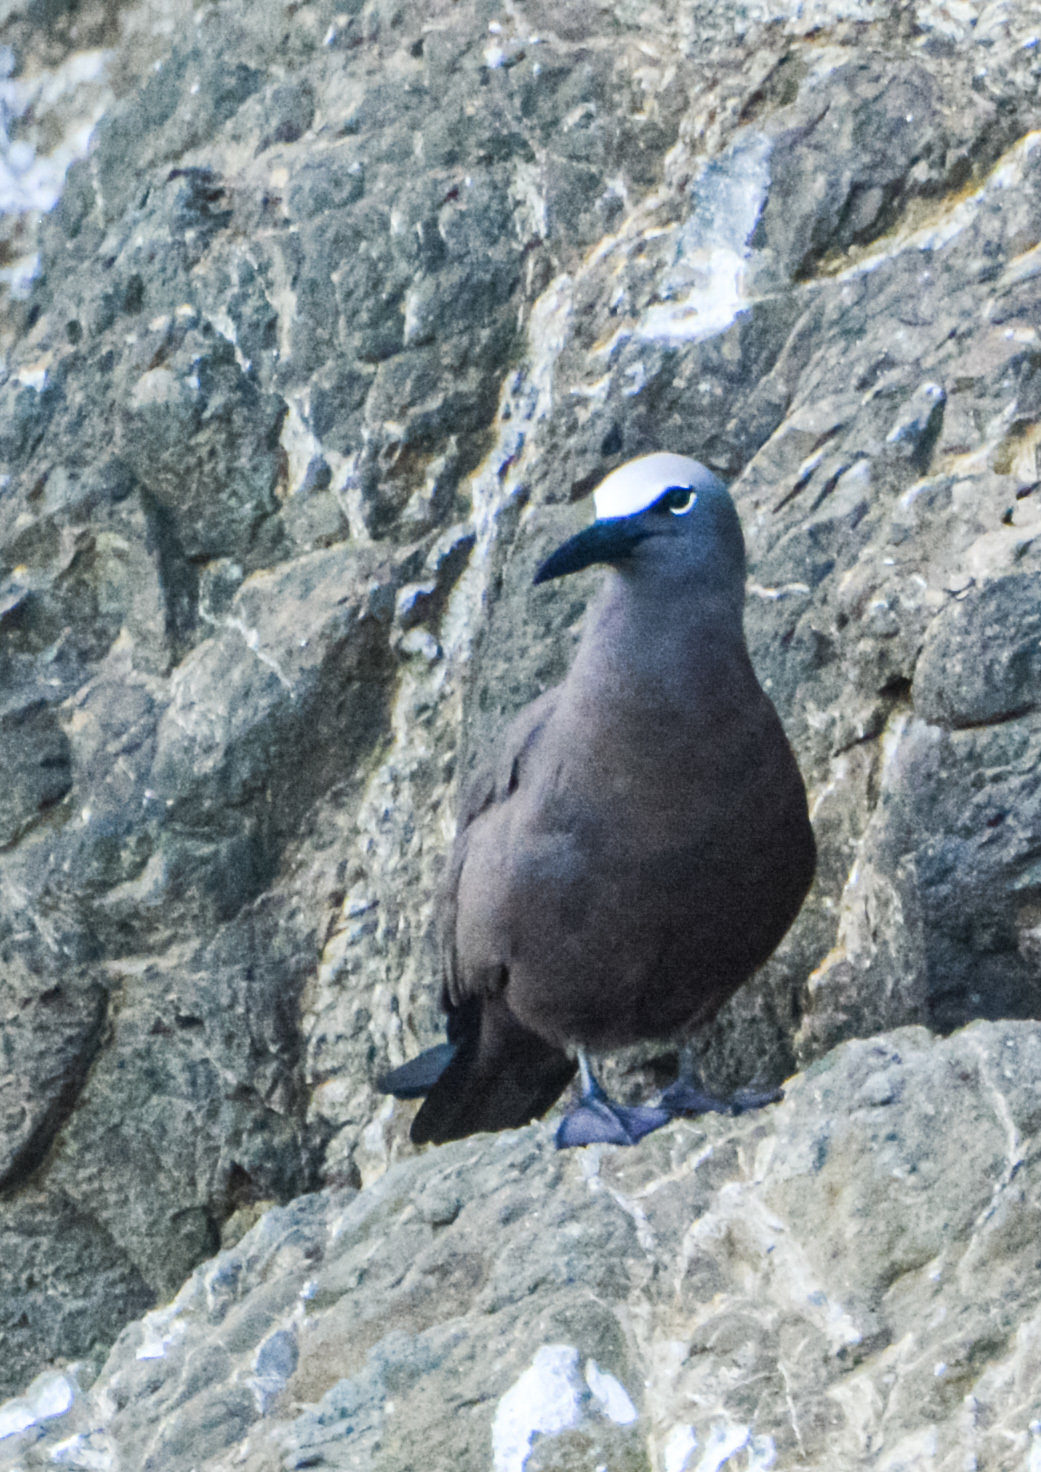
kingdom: Animalia
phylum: Chordata
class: Aves
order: Charadriiformes
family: Laridae
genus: Anous
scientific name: Anous stolidus
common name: Brown noddy
